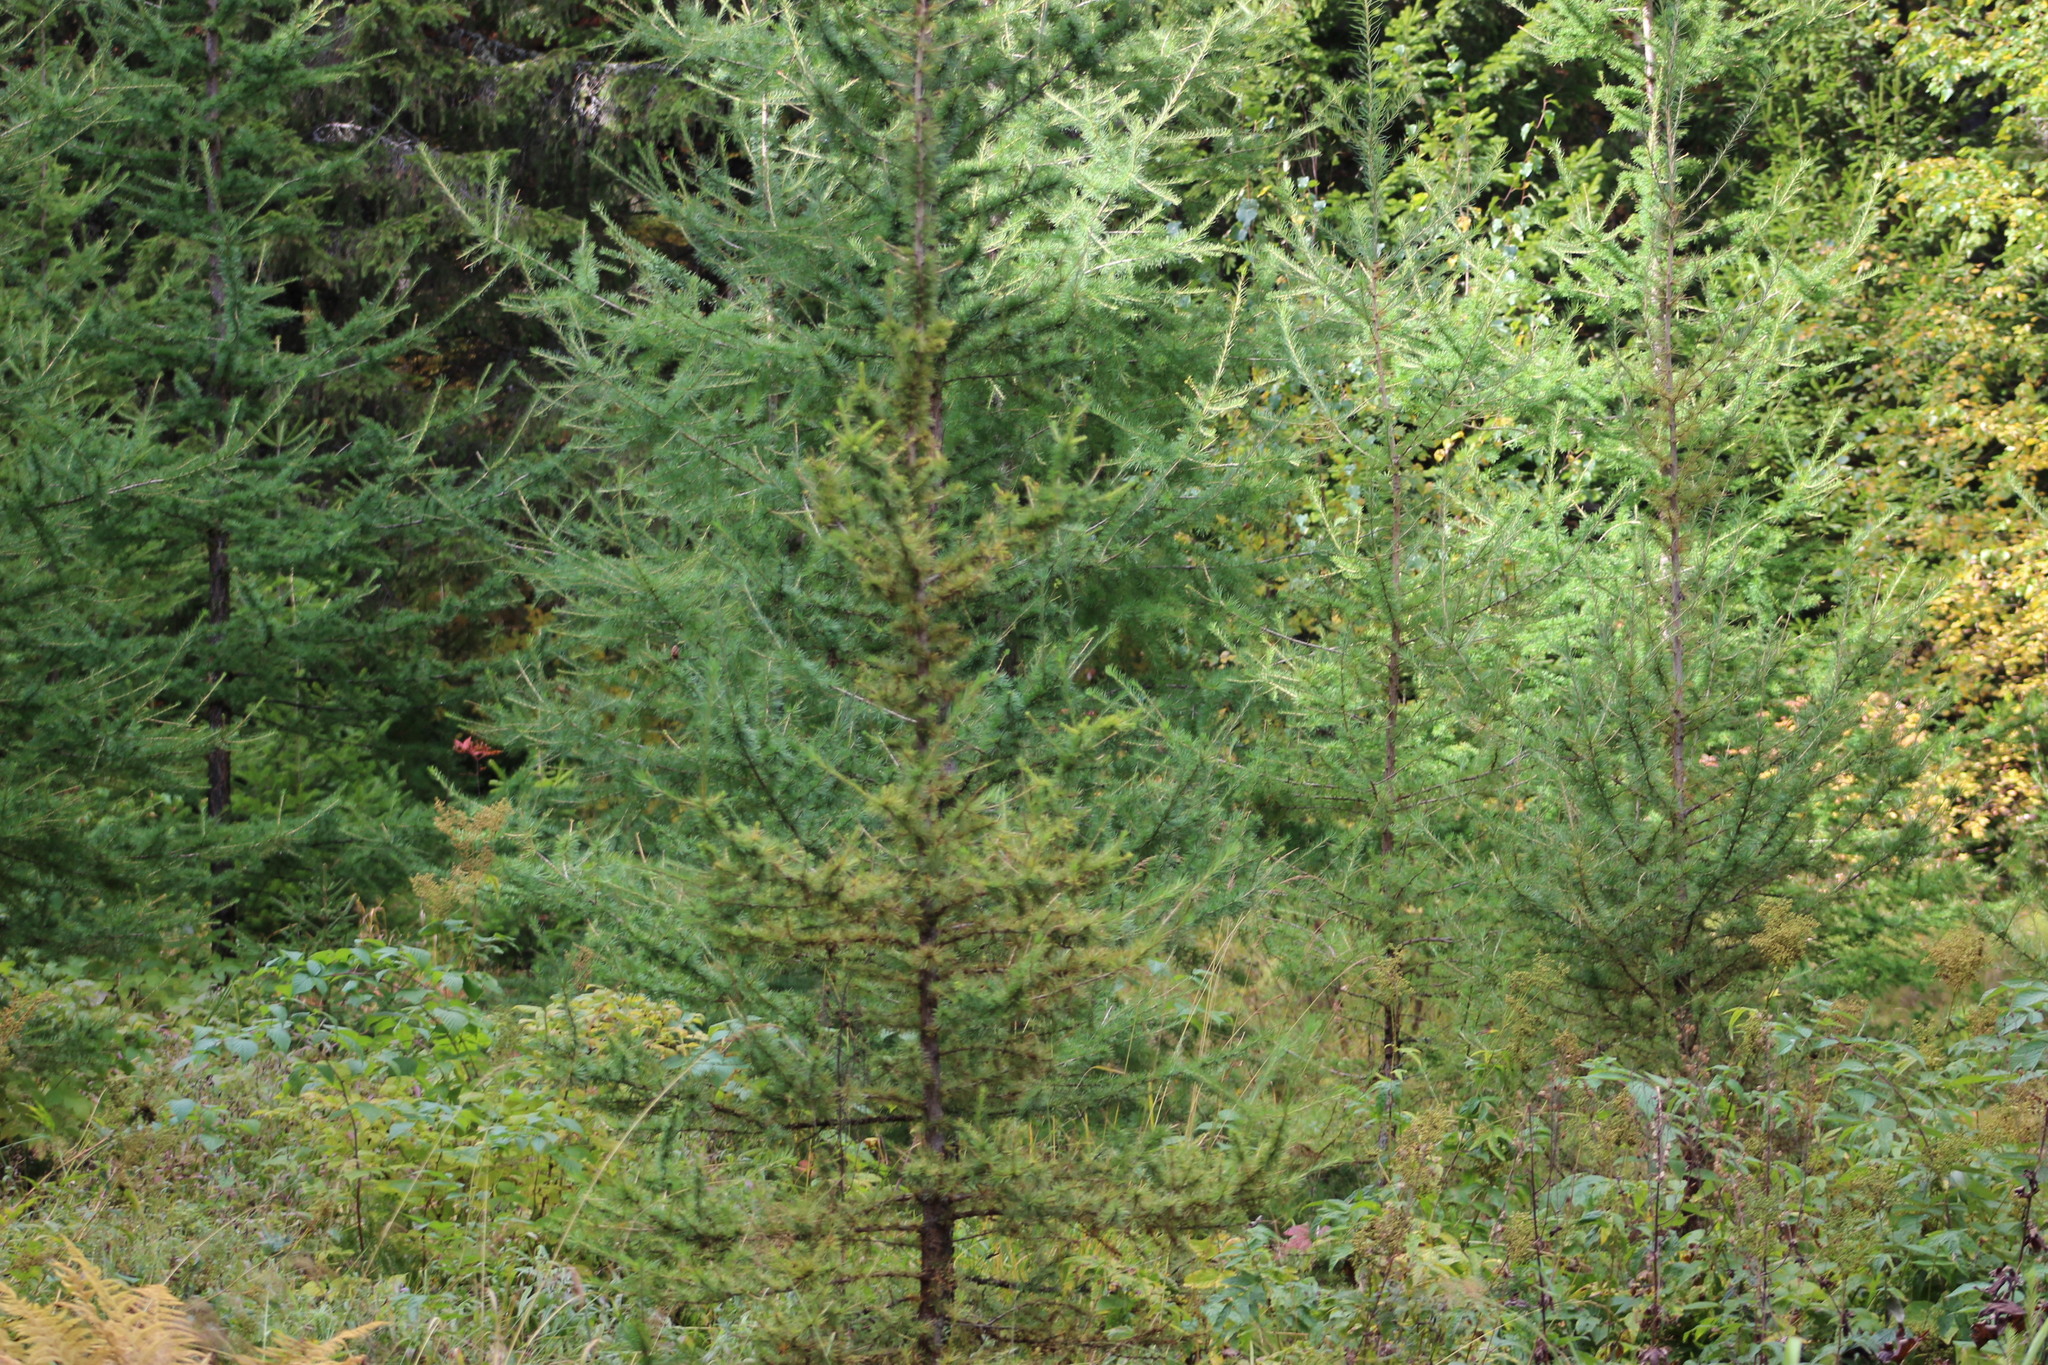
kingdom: Plantae
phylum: Tracheophyta
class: Pinopsida
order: Pinales
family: Pinaceae
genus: Larix
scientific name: Larix sibirica
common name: Siberian larch
